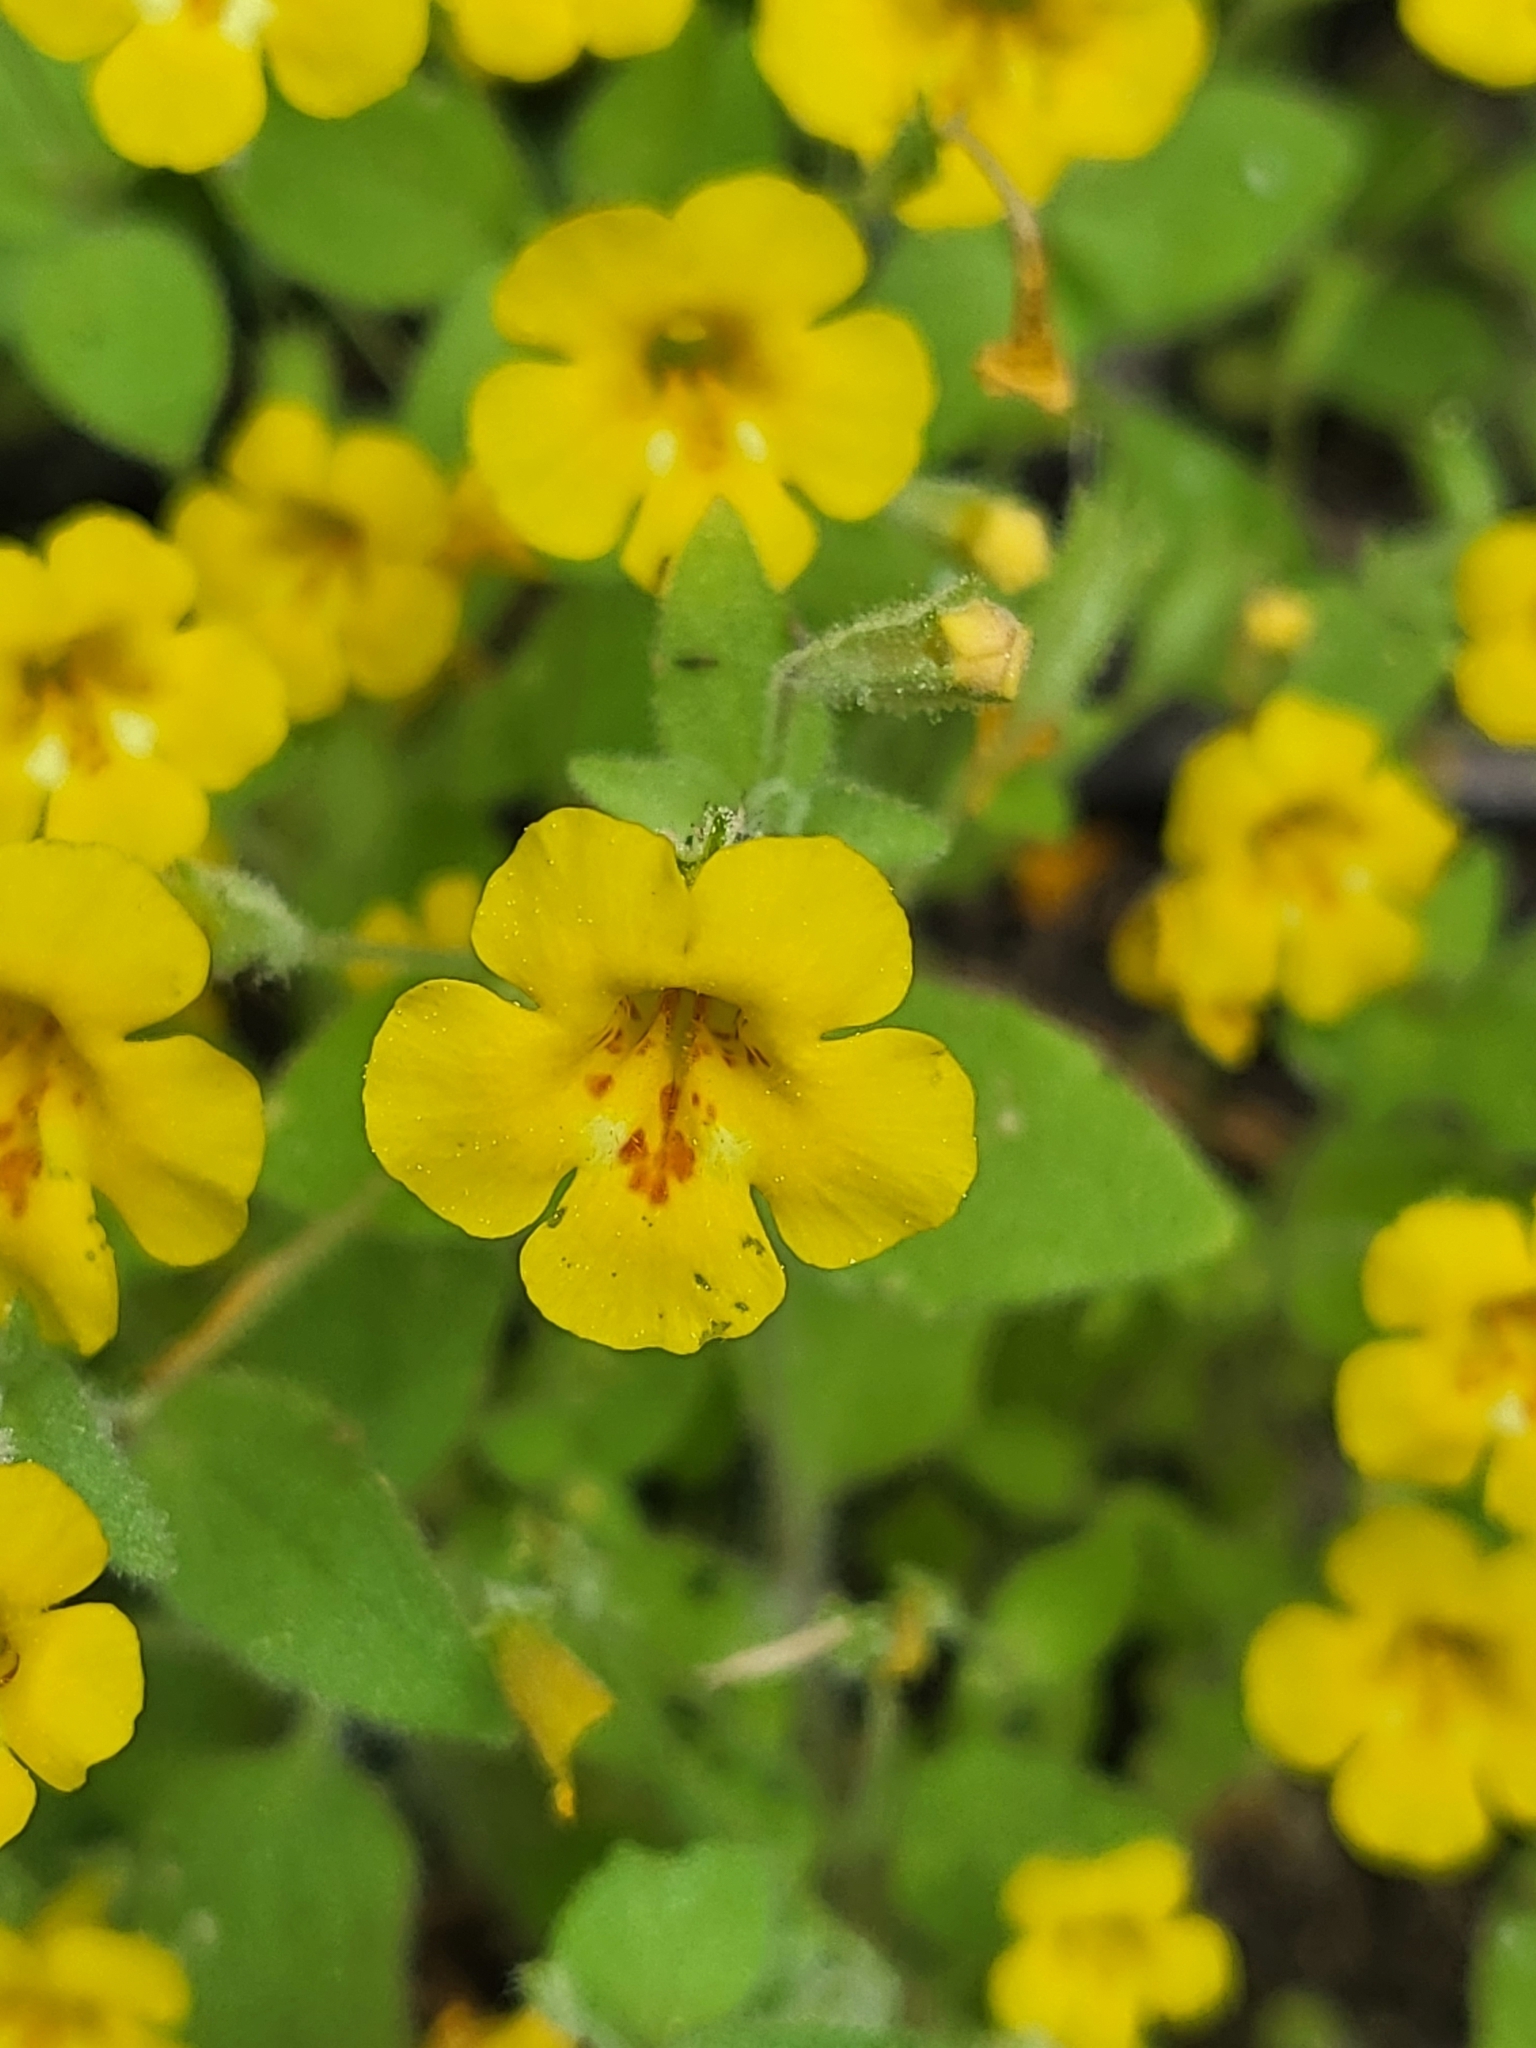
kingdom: Plantae
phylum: Tracheophyta
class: Magnoliopsida
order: Lamiales
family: Phrymaceae
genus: Erythranthe
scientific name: Erythranthe arenaria
